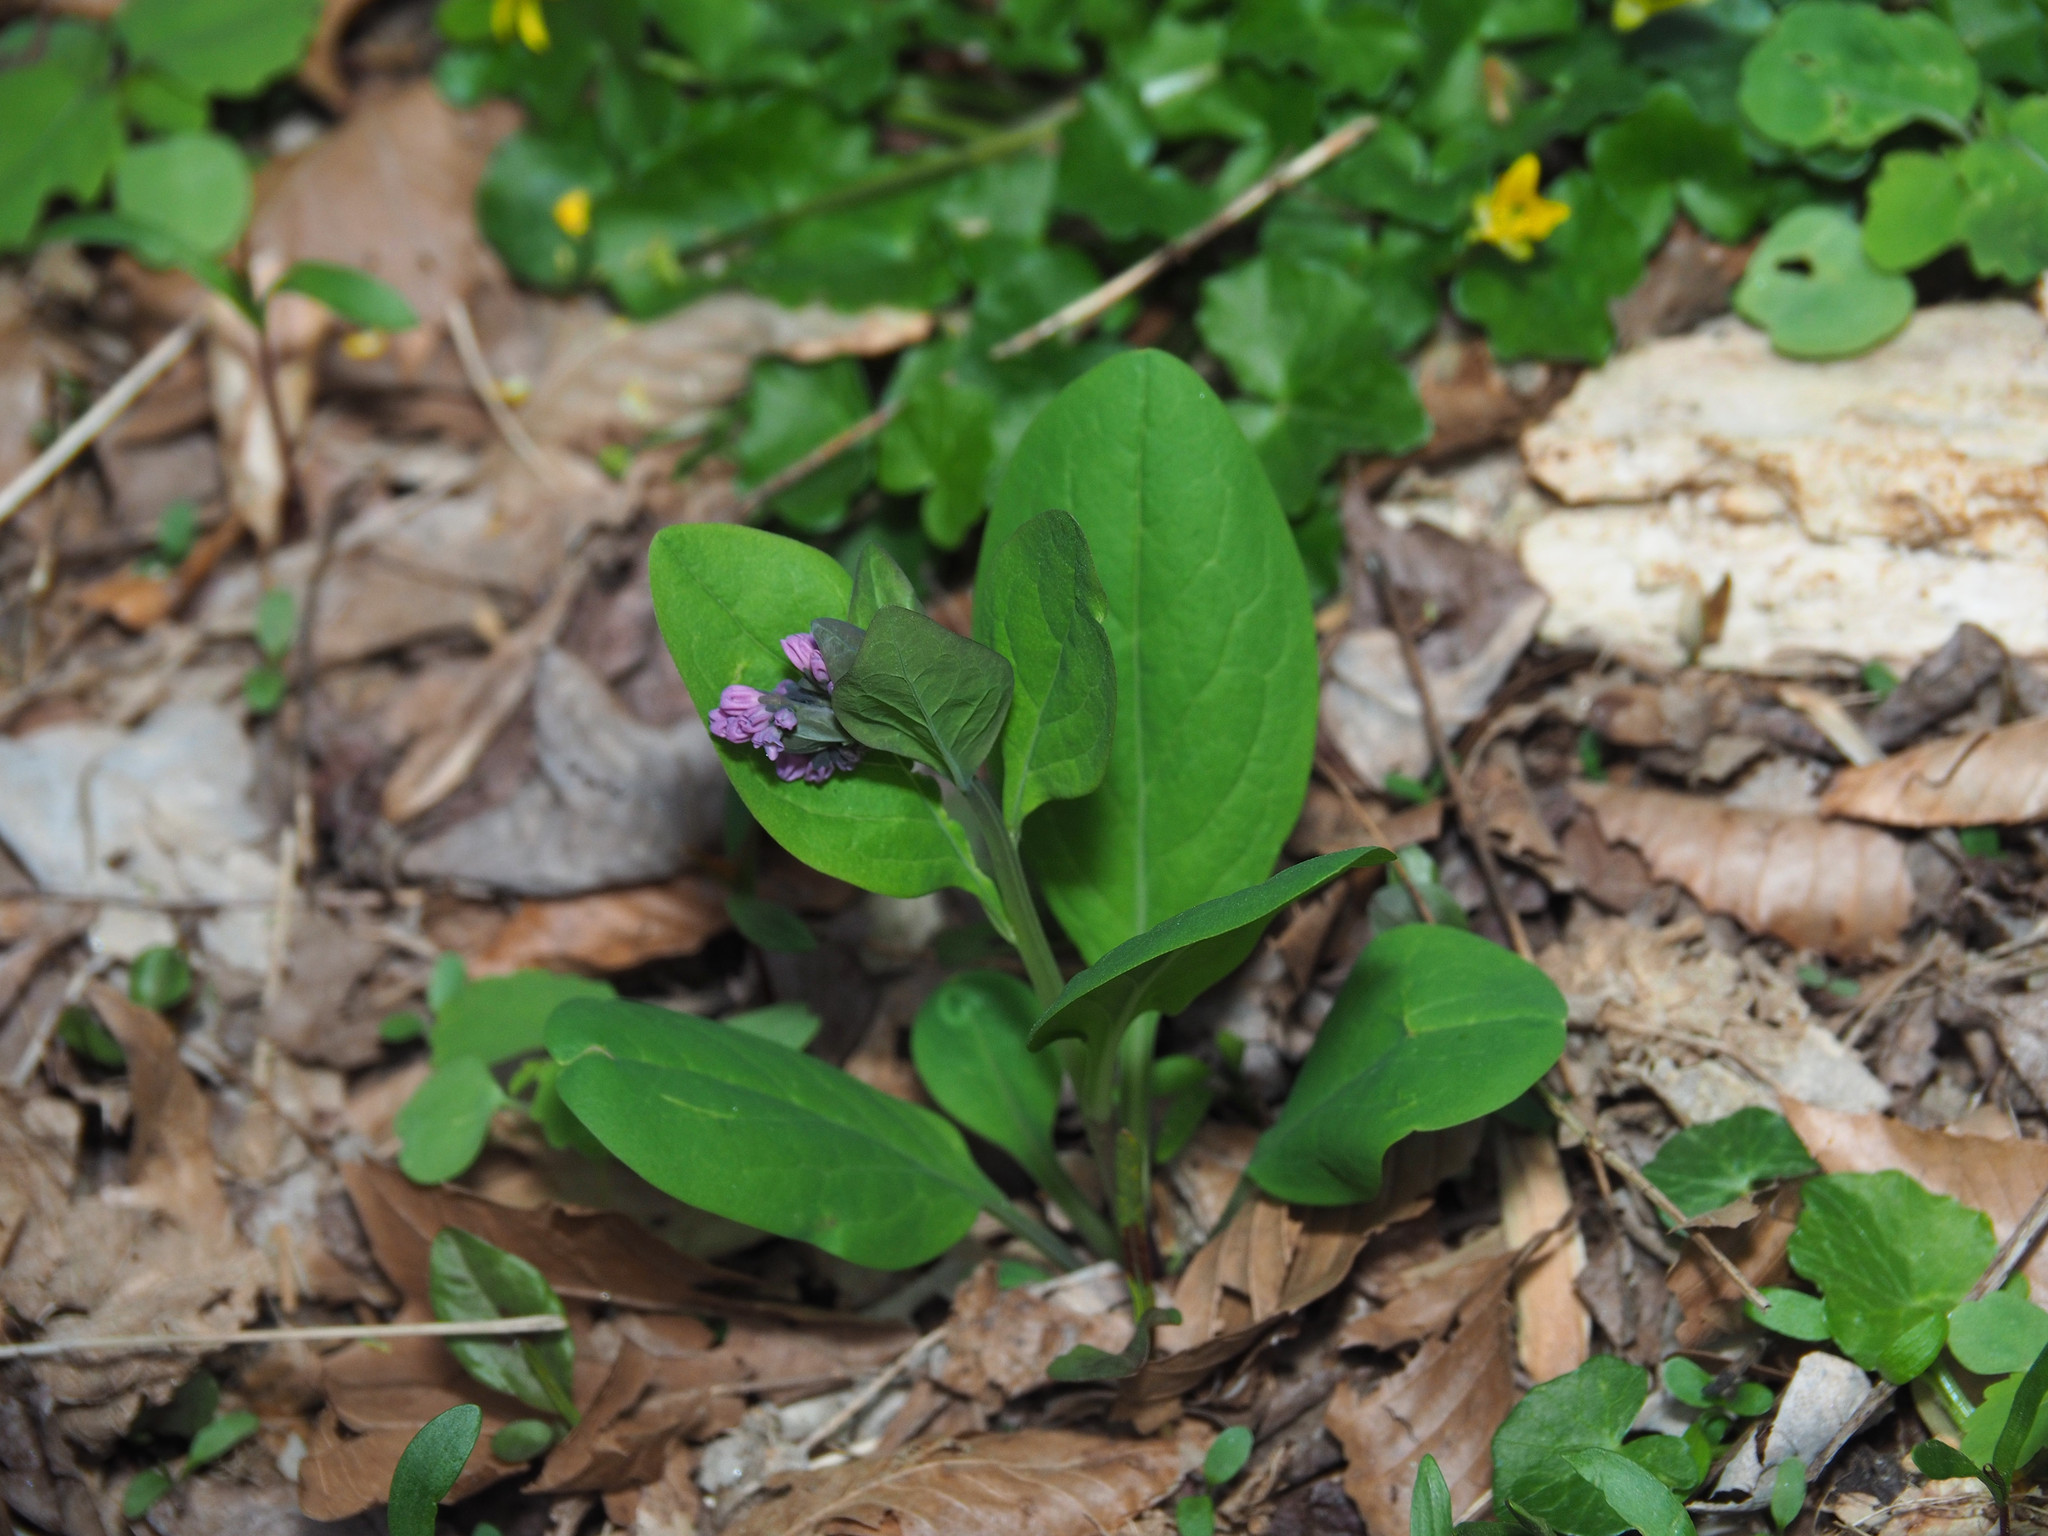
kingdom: Plantae
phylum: Tracheophyta
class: Magnoliopsida
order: Boraginales
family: Boraginaceae
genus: Mertensia
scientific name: Mertensia virginica
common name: Virginia bluebells
